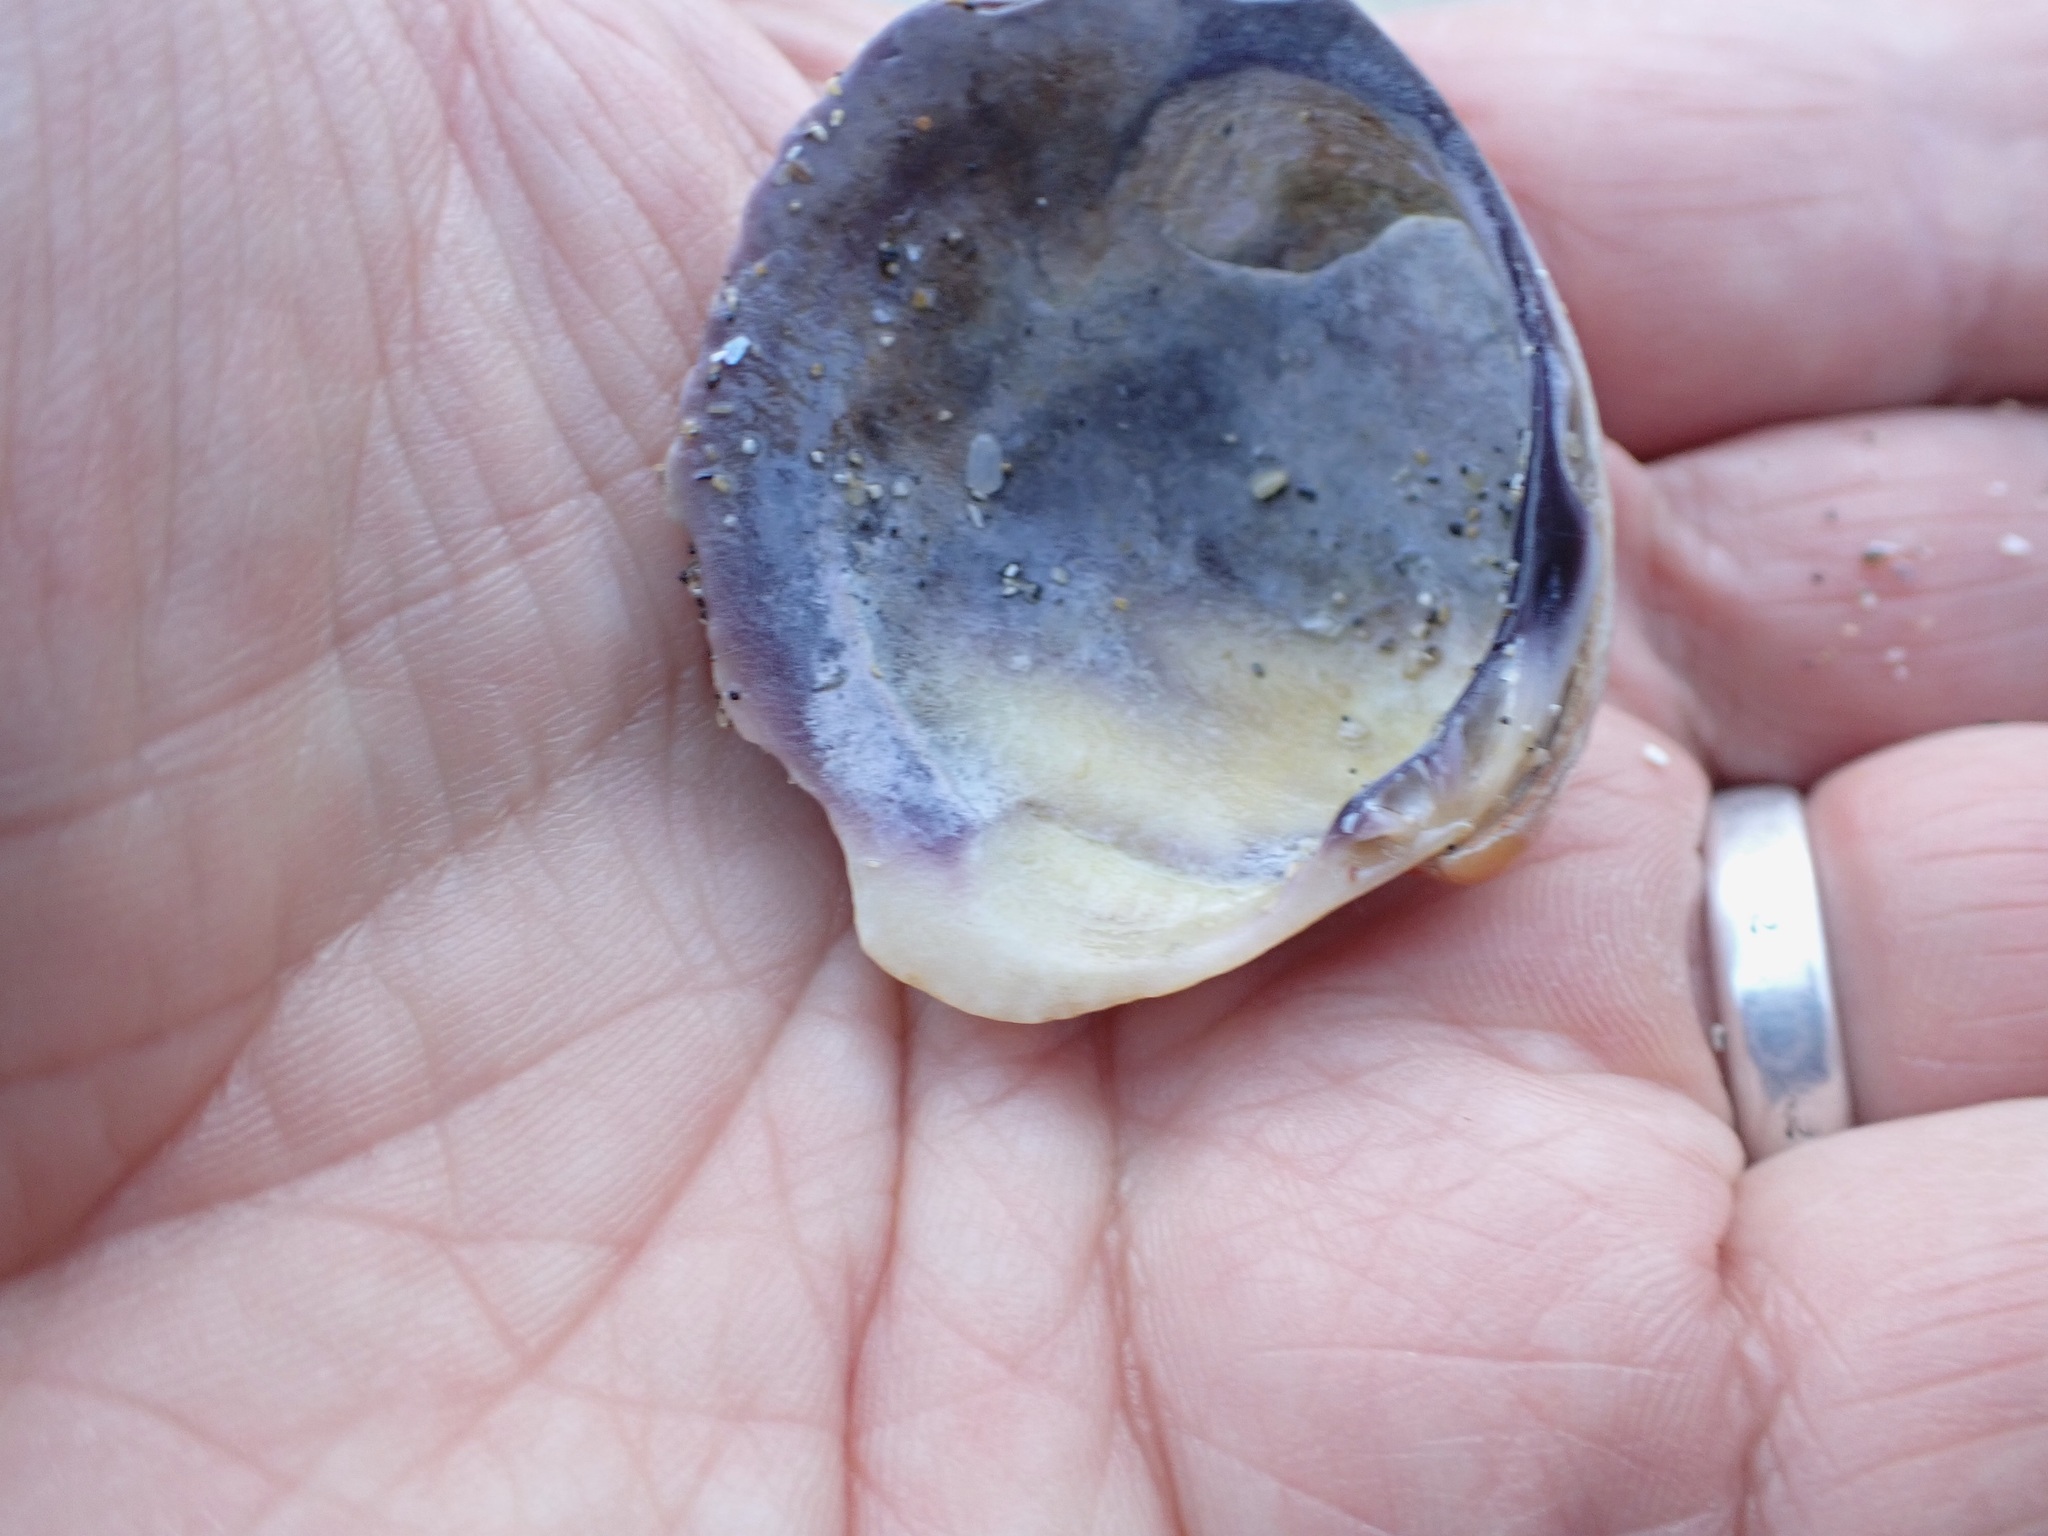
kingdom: Animalia
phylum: Mollusca
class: Bivalvia
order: Venerida
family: Veneridae
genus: Austrovenus
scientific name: Austrovenus stutchburyi
